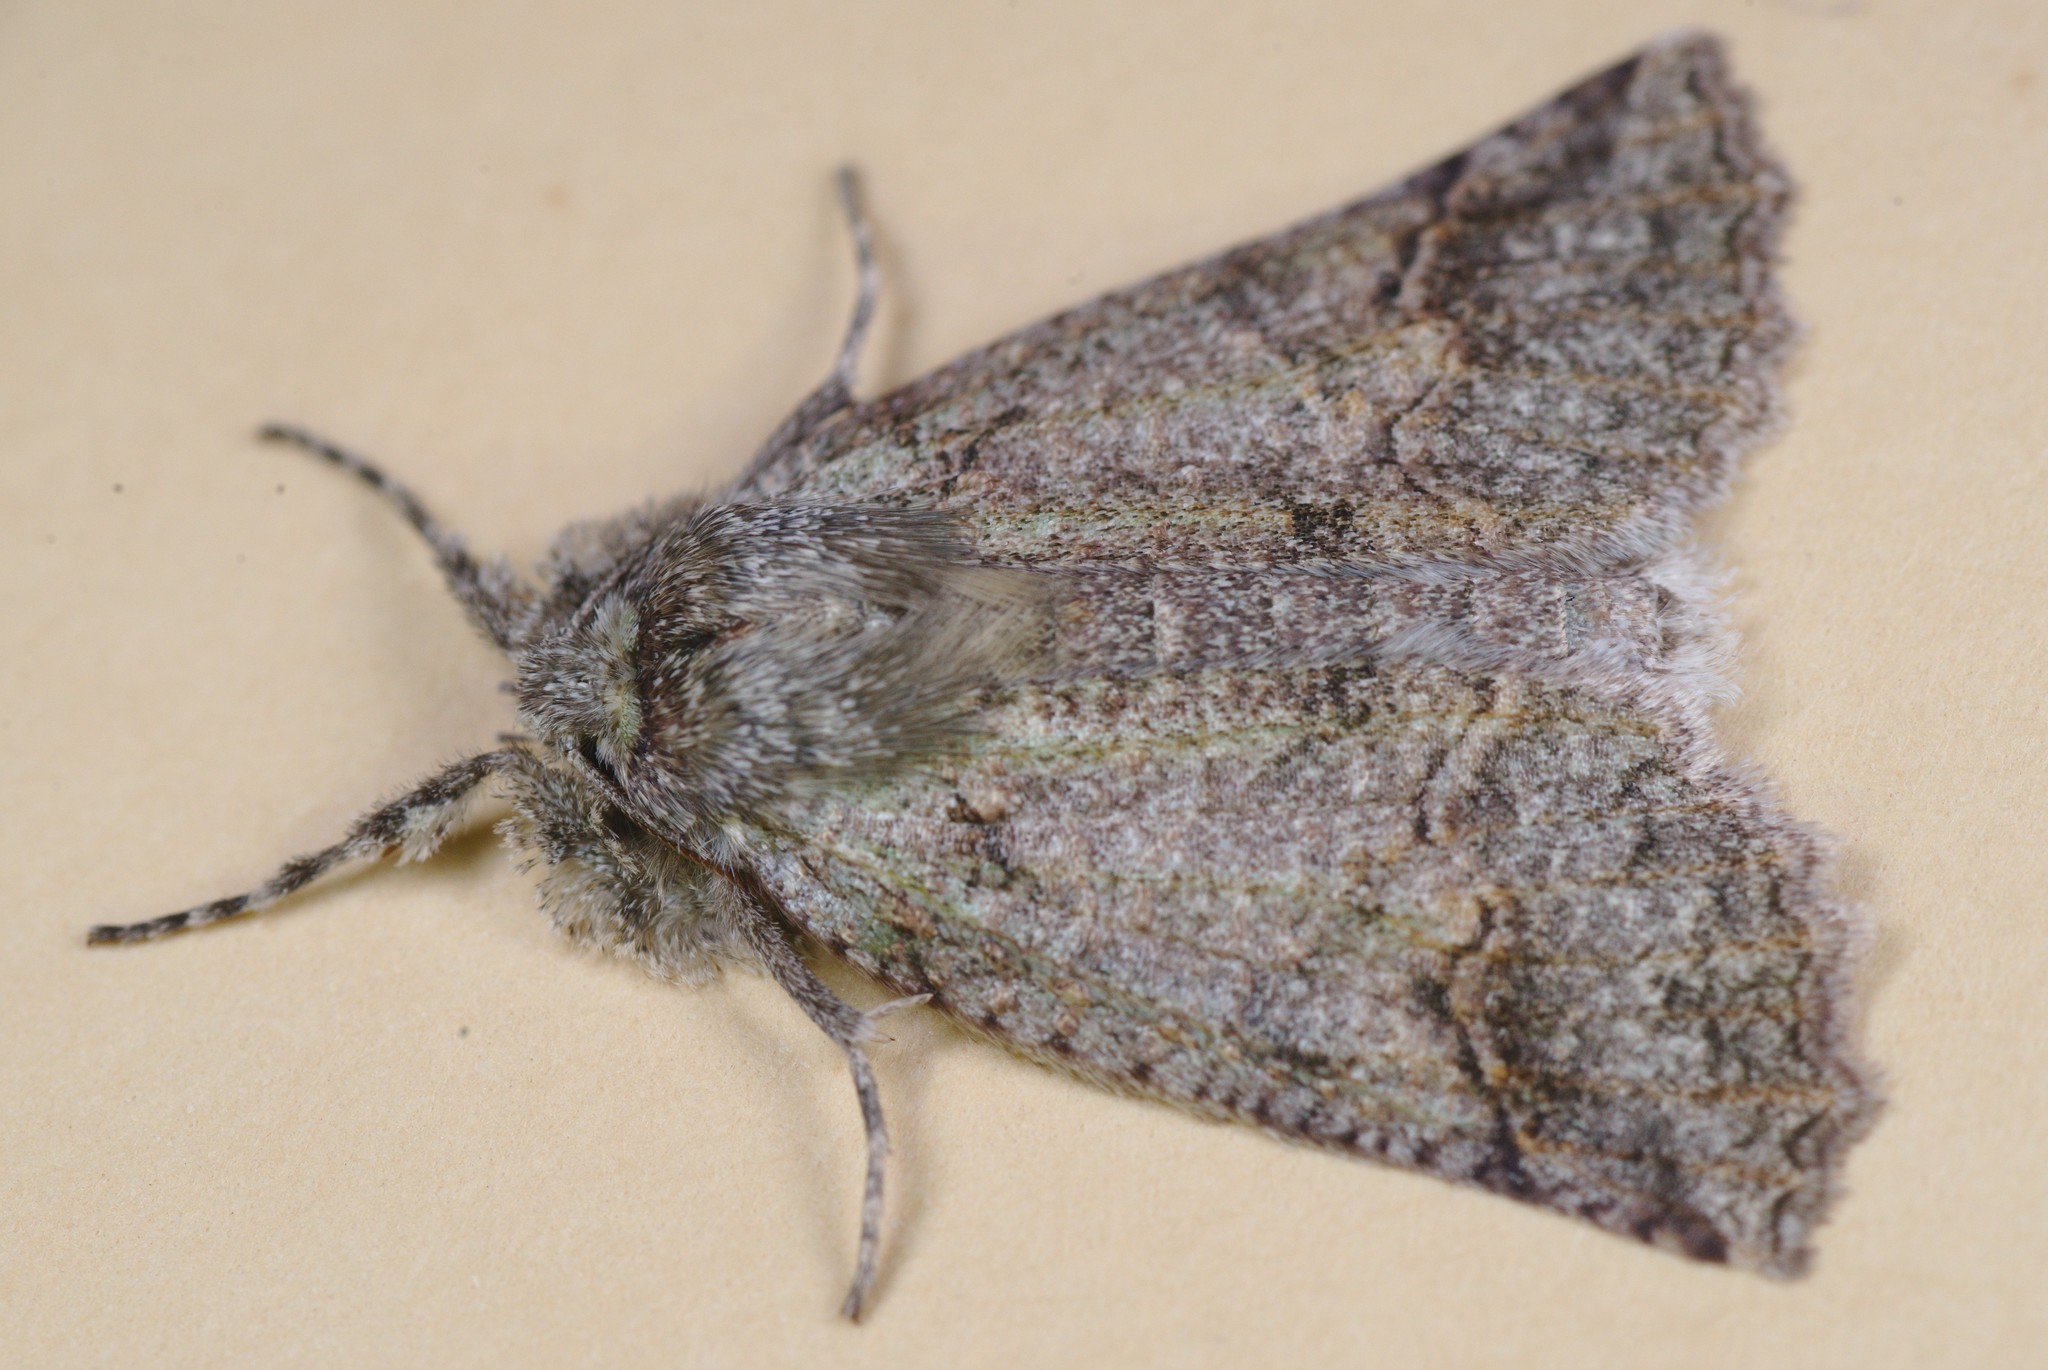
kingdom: Animalia
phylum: Arthropoda
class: Insecta
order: Lepidoptera
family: Geometridae
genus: Declana
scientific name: Declana floccosa
